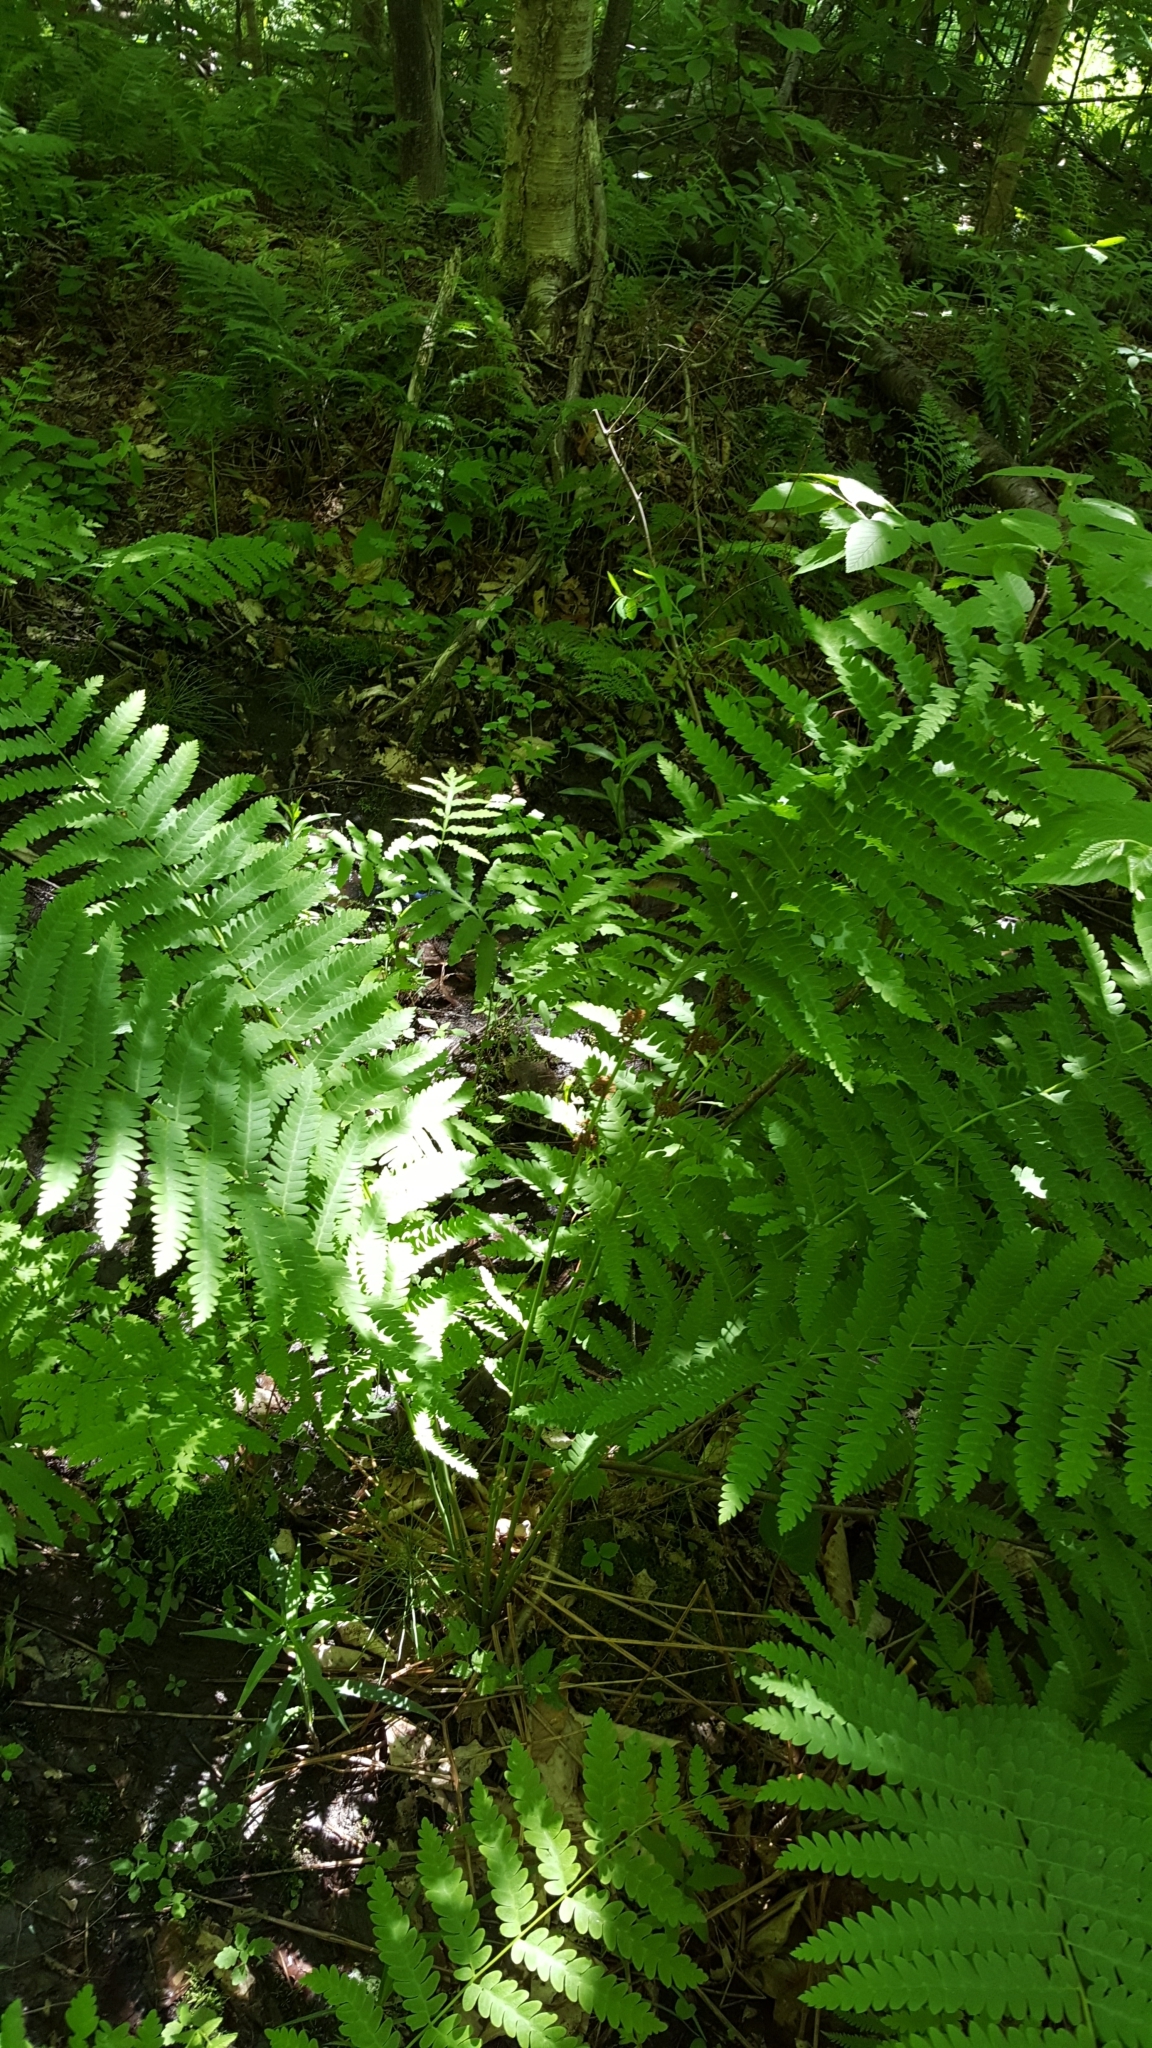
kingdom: Plantae
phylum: Tracheophyta
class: Polypodiopsida
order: Osmundales
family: Osmundaceae
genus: Claytosmunda
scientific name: Claytosmunda claytoniana
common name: Clayton's fern
